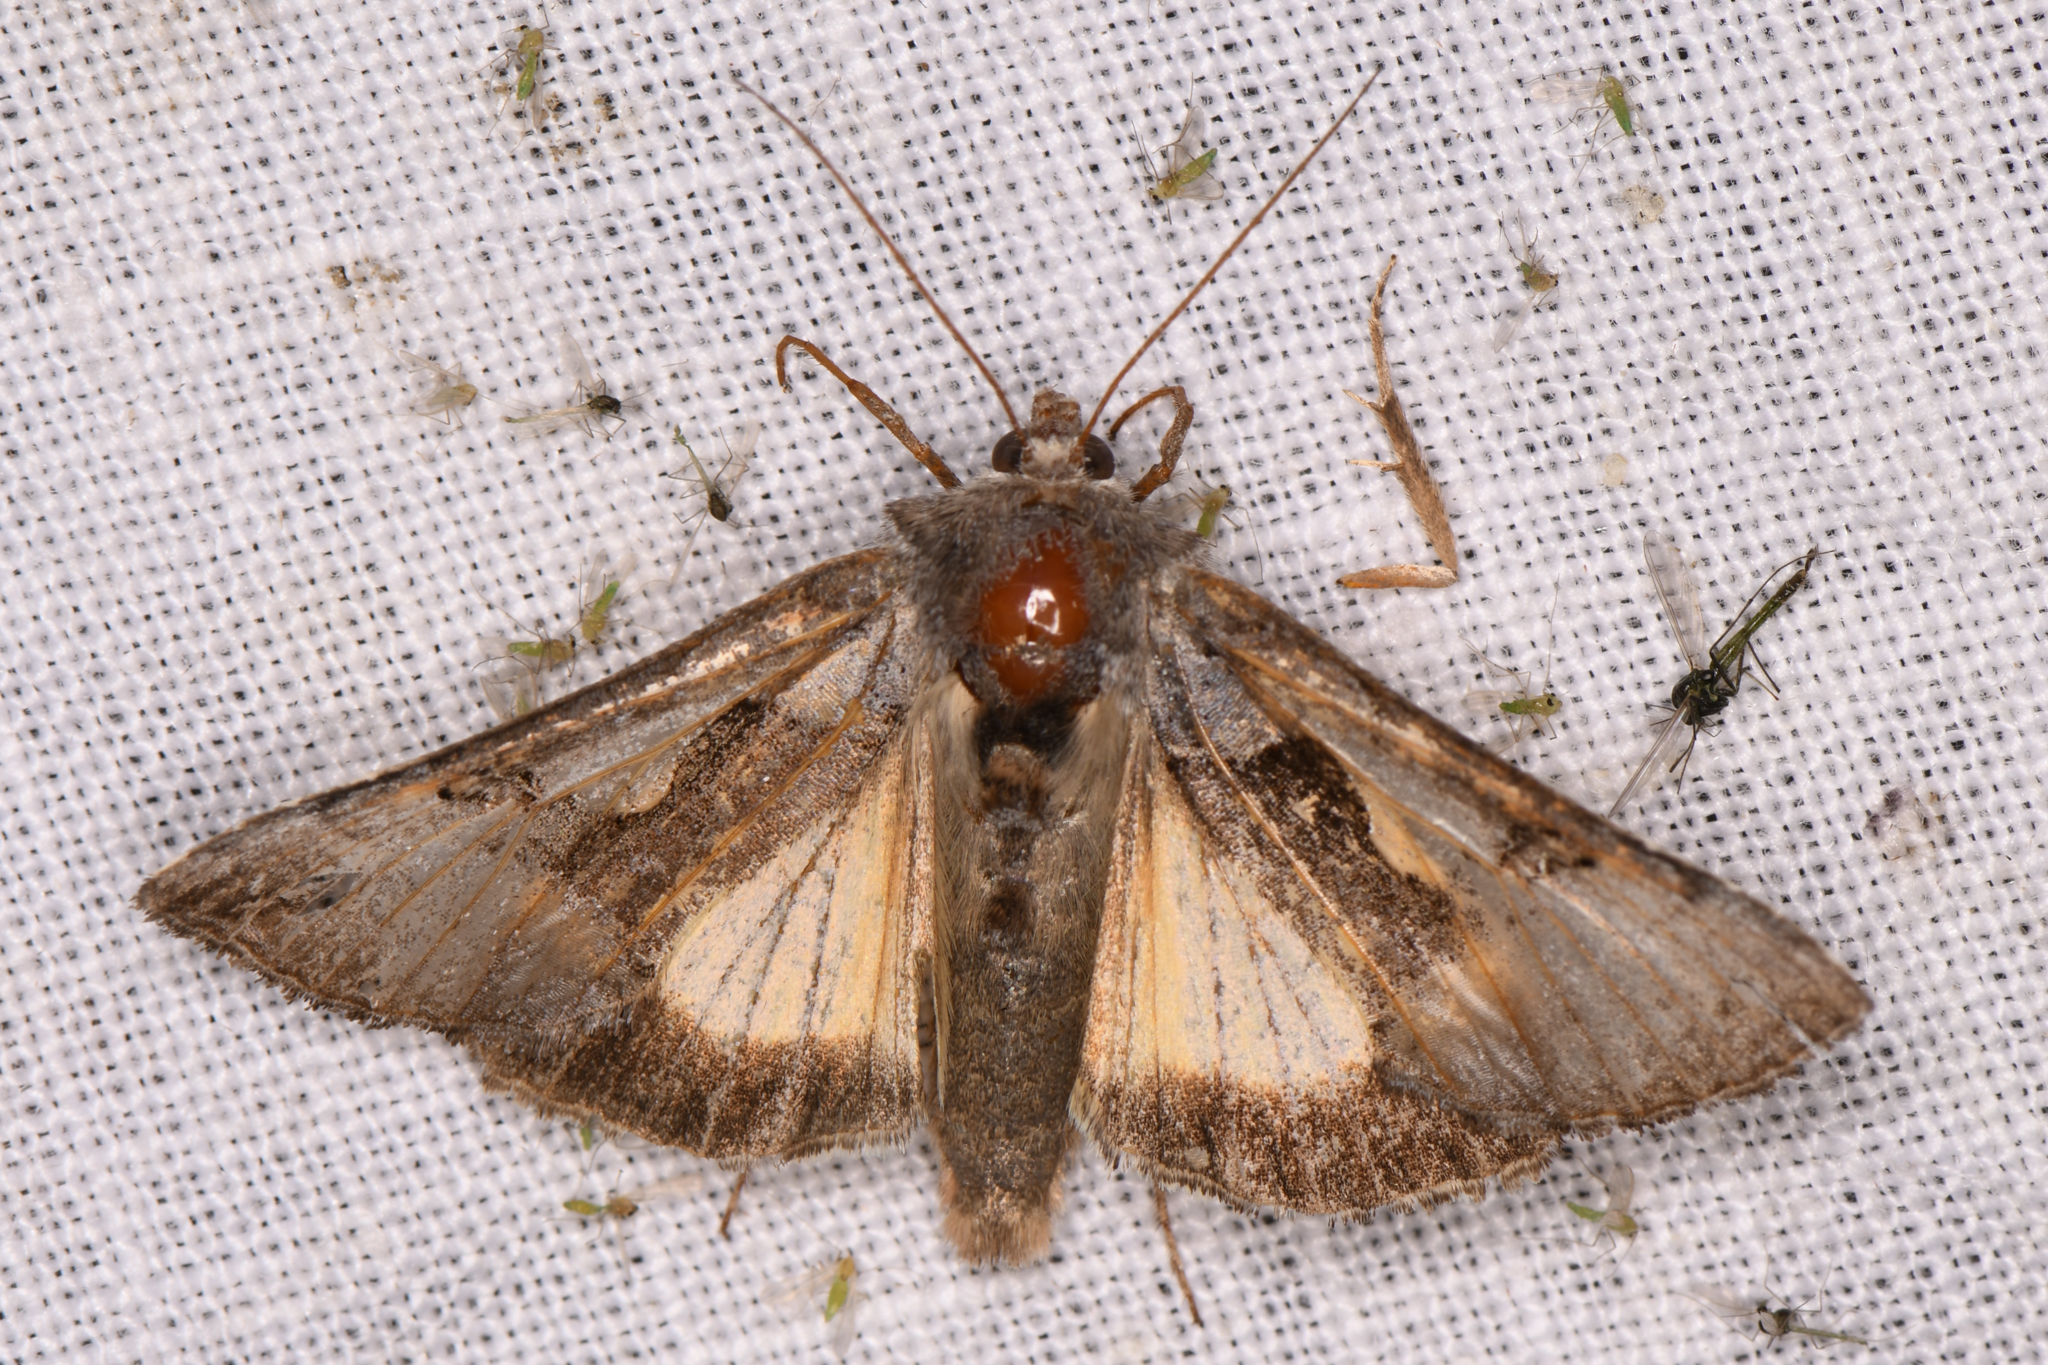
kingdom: Animalia
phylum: Arthropoda
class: Insecta
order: Lepidoptera
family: Noctuidae
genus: Autographa
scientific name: Autographa ampla
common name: Large looper moth
